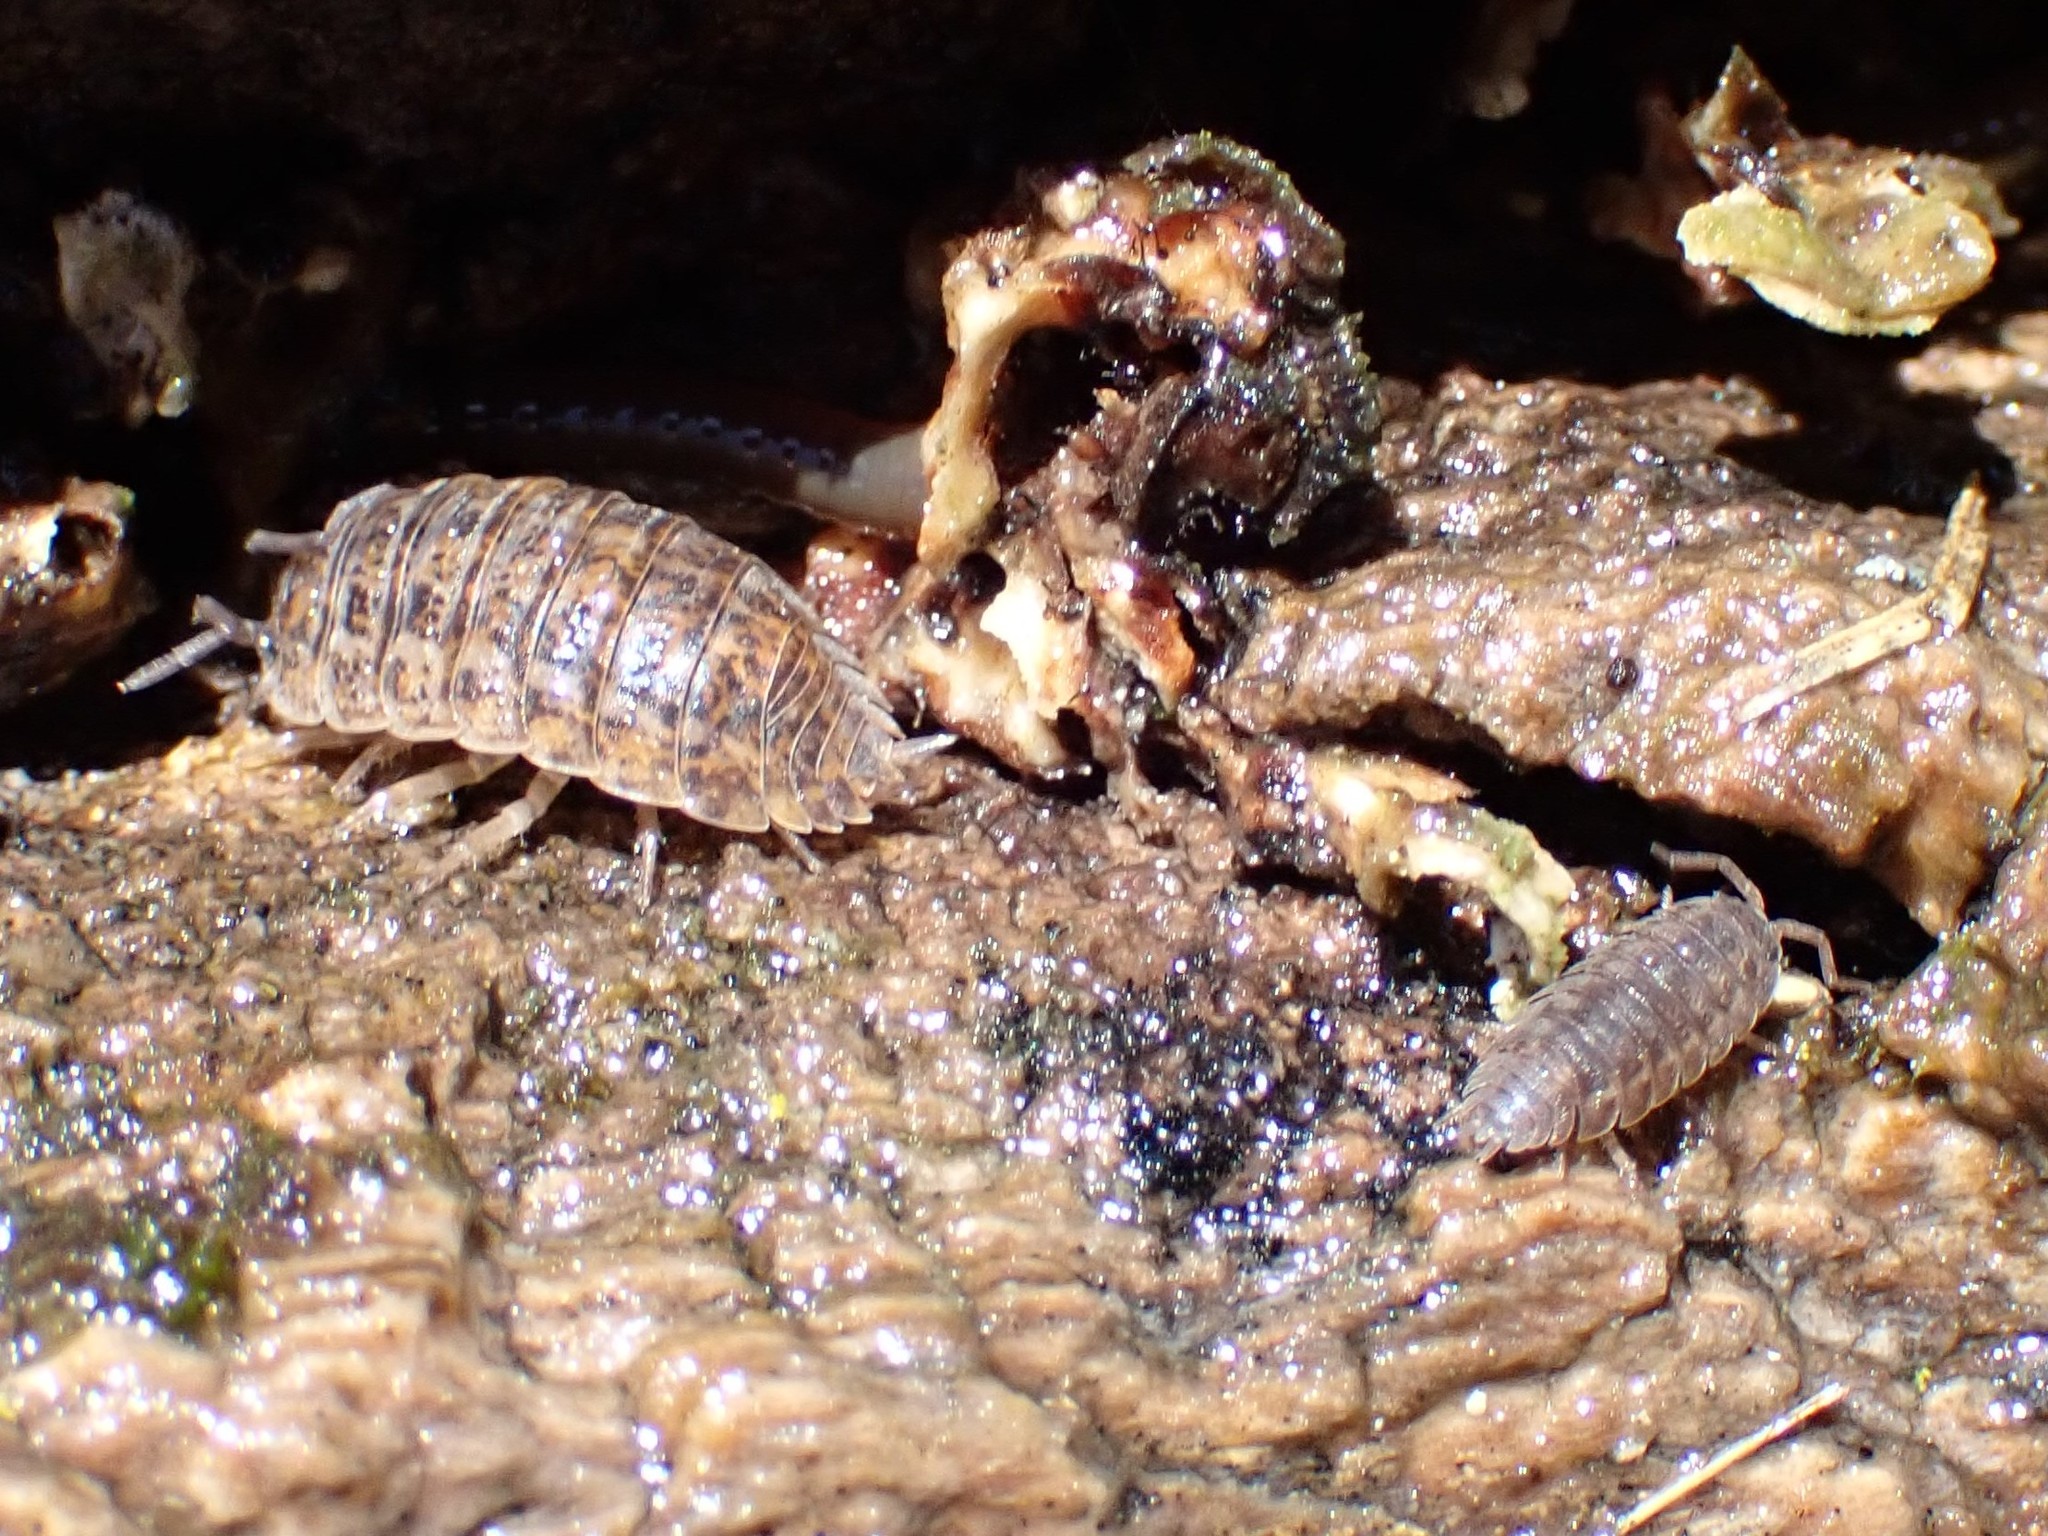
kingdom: Animalia
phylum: Arthropoda
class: Malacostraca
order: Isopoda
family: Trachelipodidae
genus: Trachelipus
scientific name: Trachelipus rathkii
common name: Isopod
